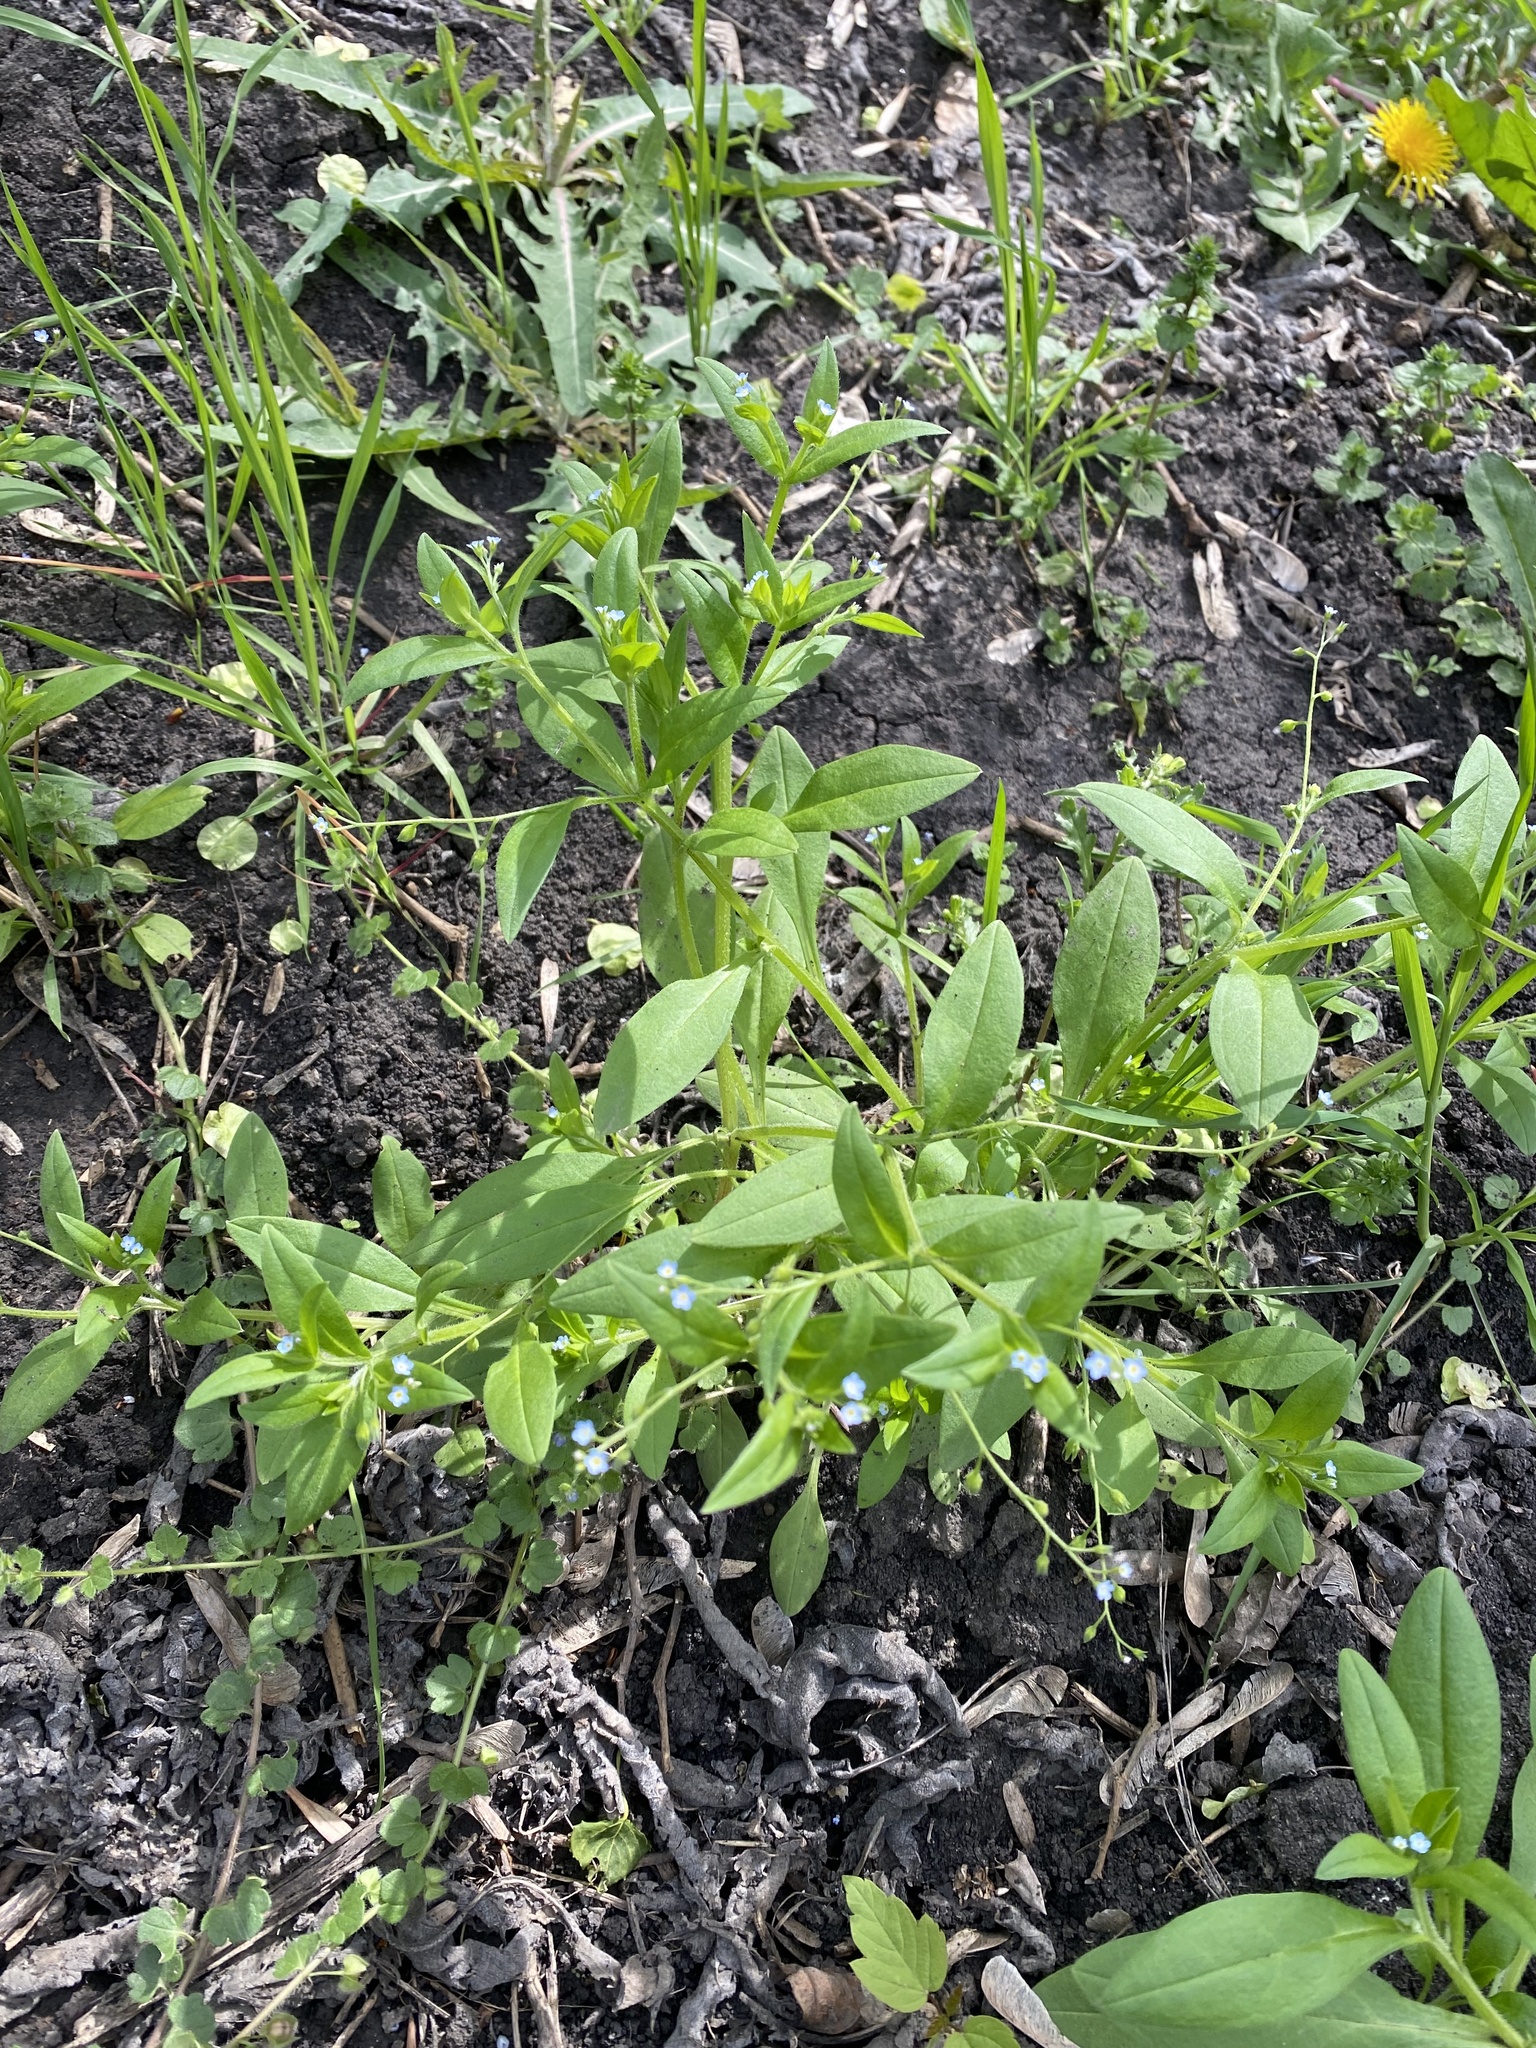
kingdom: Plantae
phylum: Tracheophyta
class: Magnoliopsida
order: Boraginales
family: Boraginaceae
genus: Myosotis
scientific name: Myosotis sparsiflora
